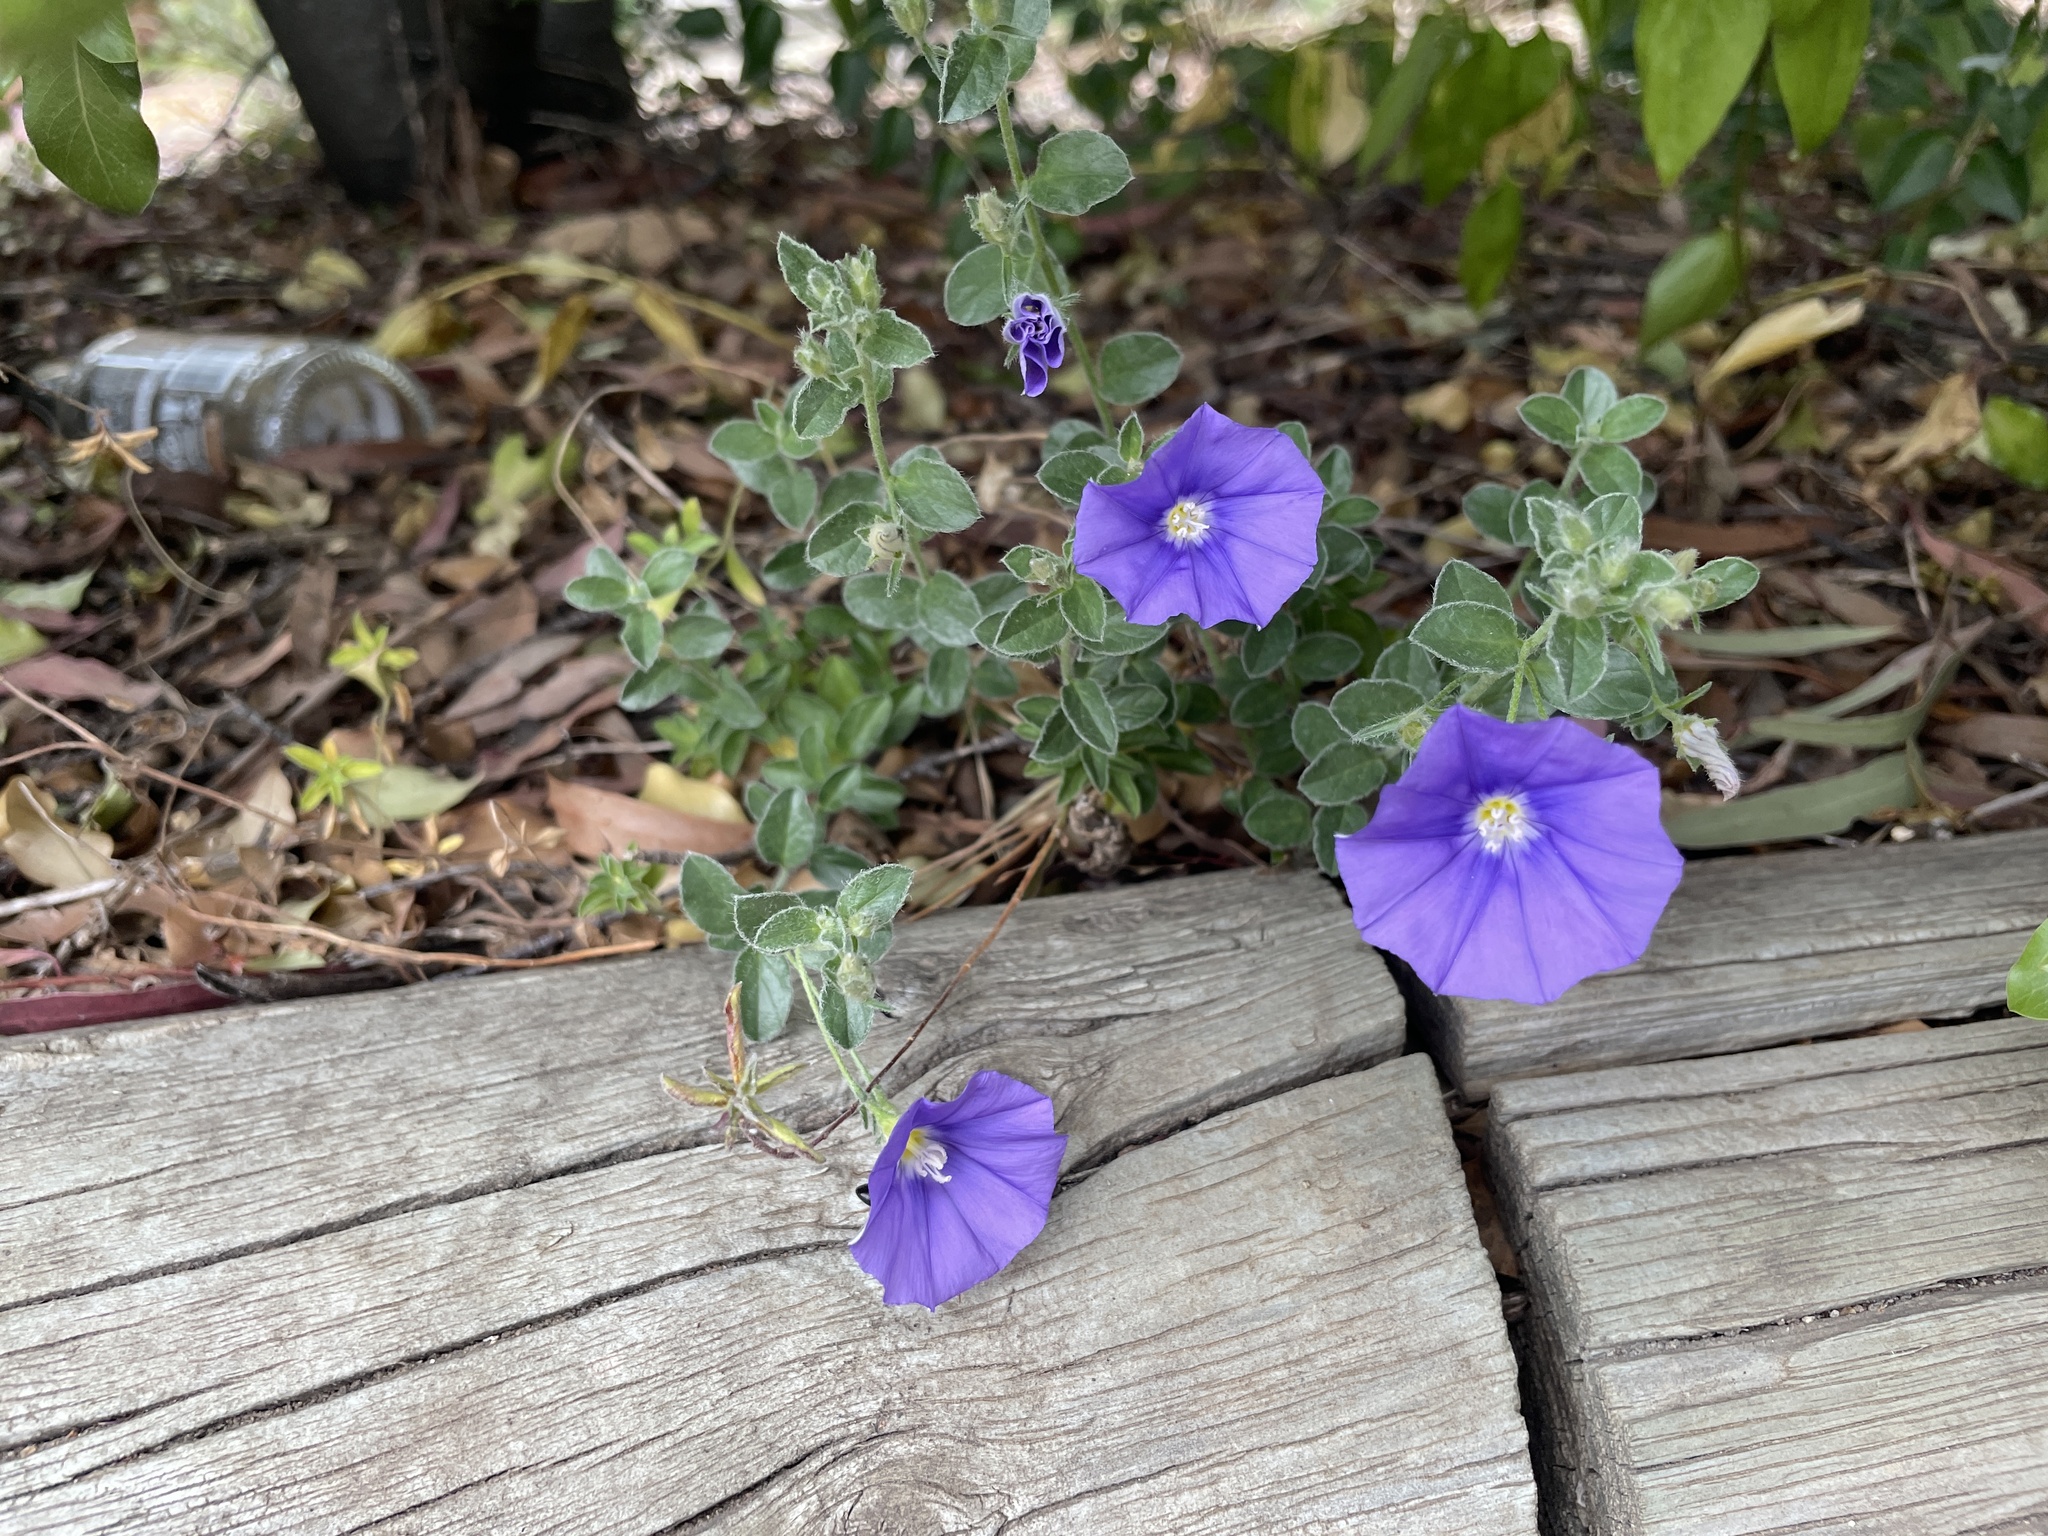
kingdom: Plantae
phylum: Tracheophyta
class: Magnoliopsida
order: Solanales
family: Convolvulaceae
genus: Convolvulus
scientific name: Convolvulus sabatius
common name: Ground blue-convolvulus
